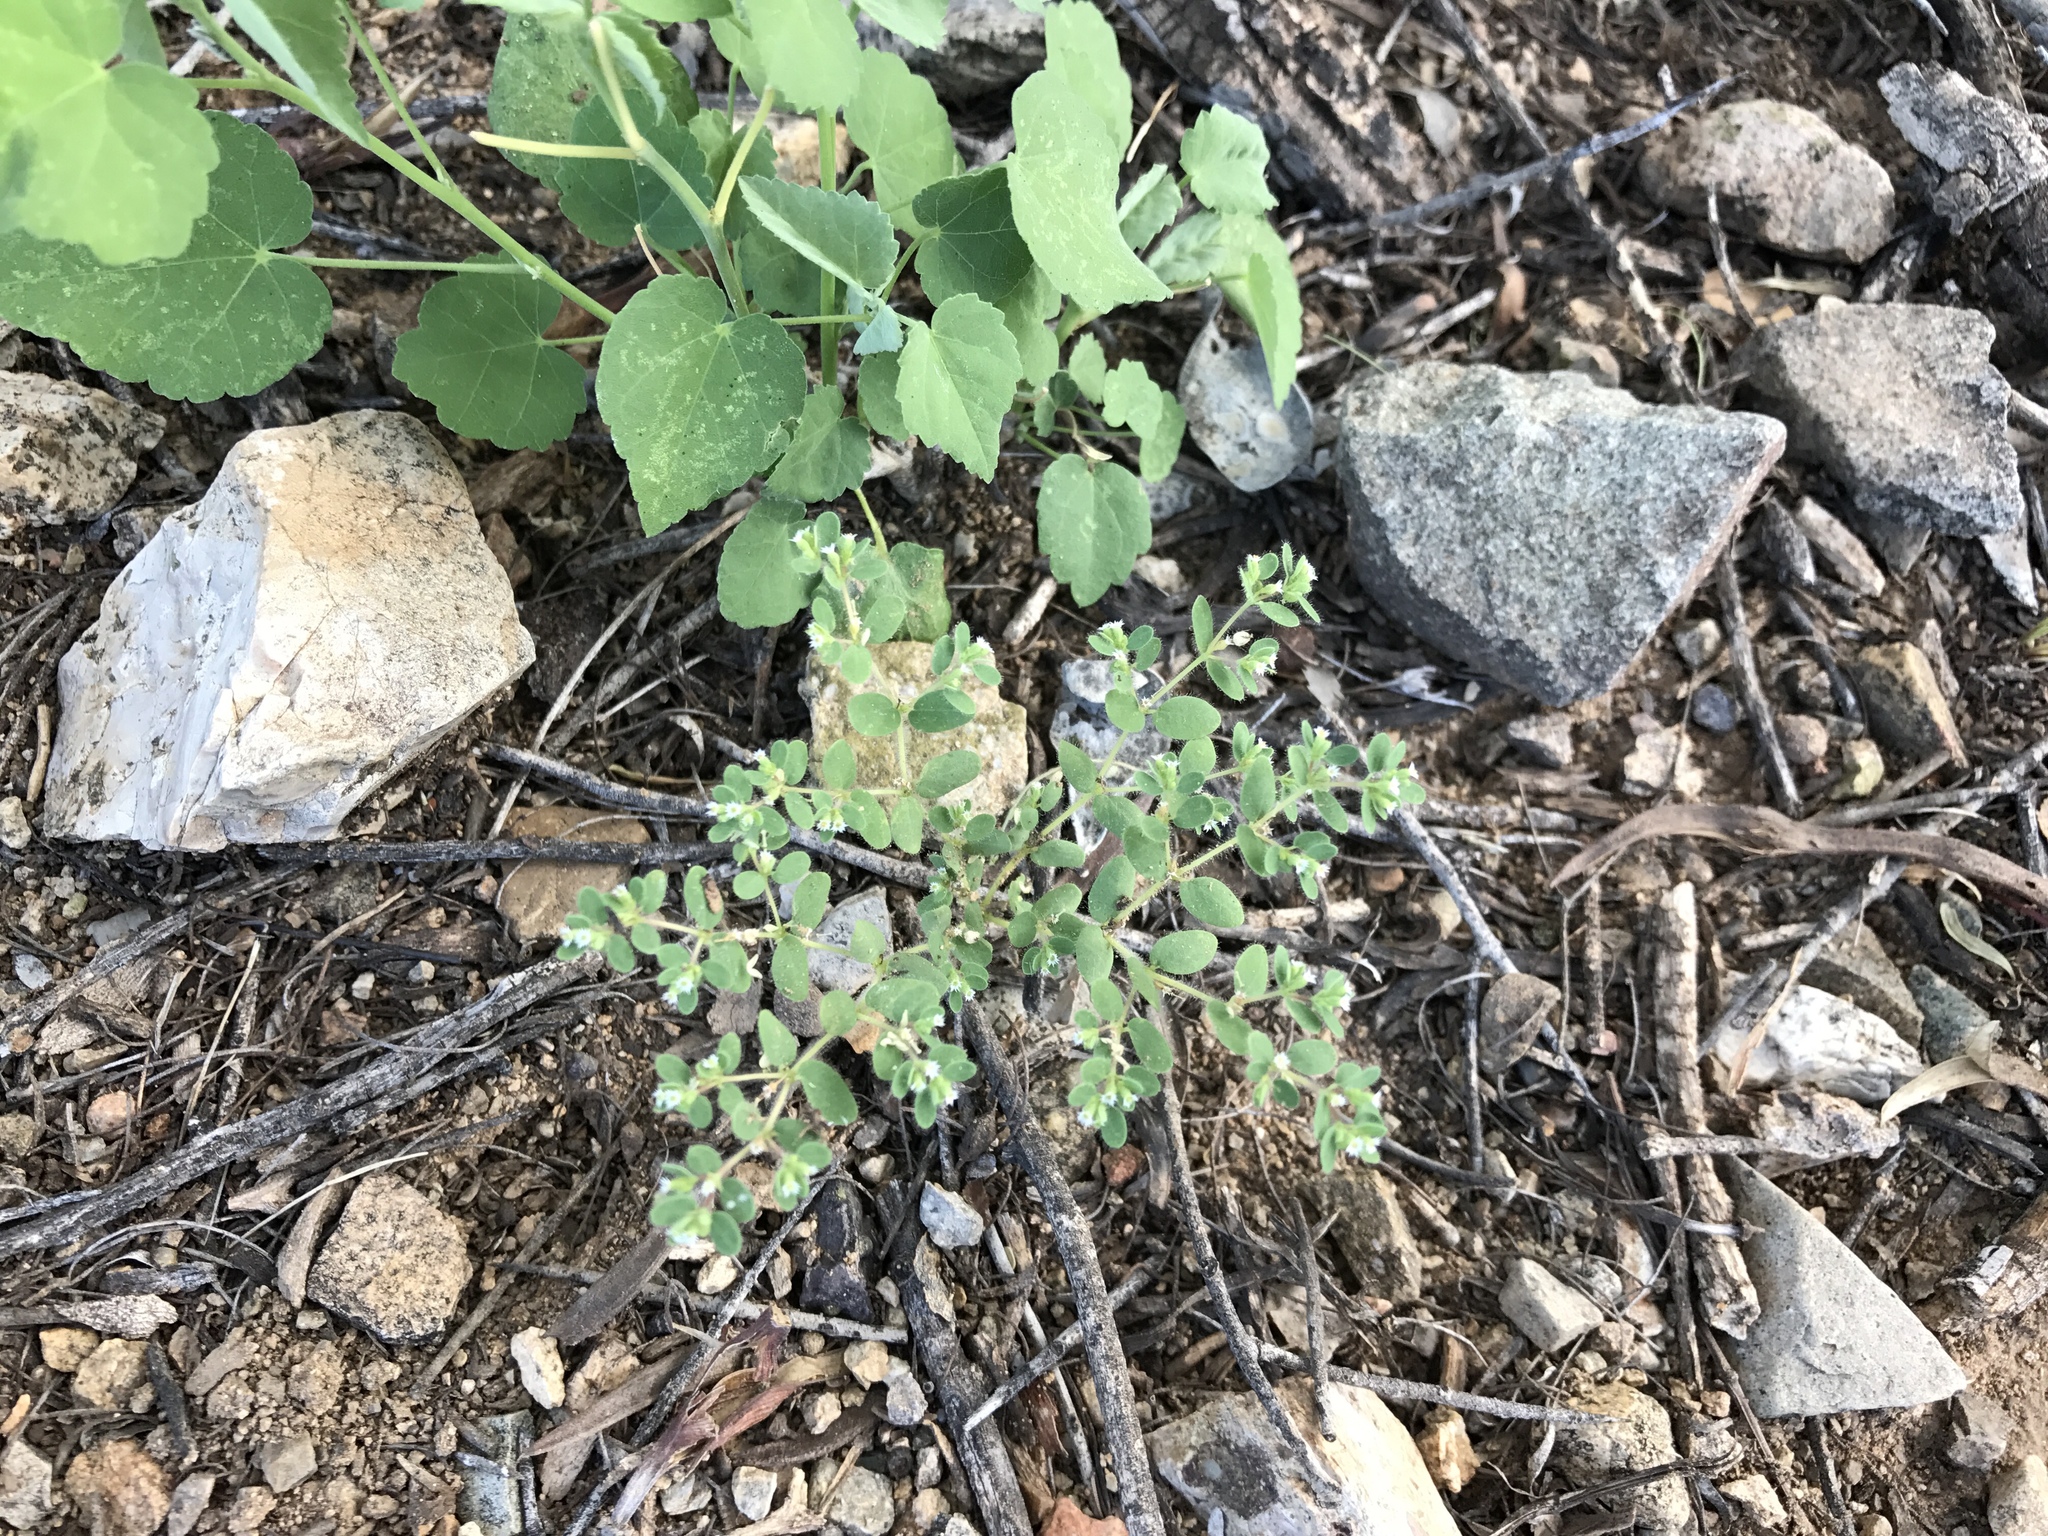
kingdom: Plantae
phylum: Tracheophyta
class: Magnoliopsida
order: Malpighiales
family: Euphorbiaceae
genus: Euphorbia
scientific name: Euphorbia setiloba
